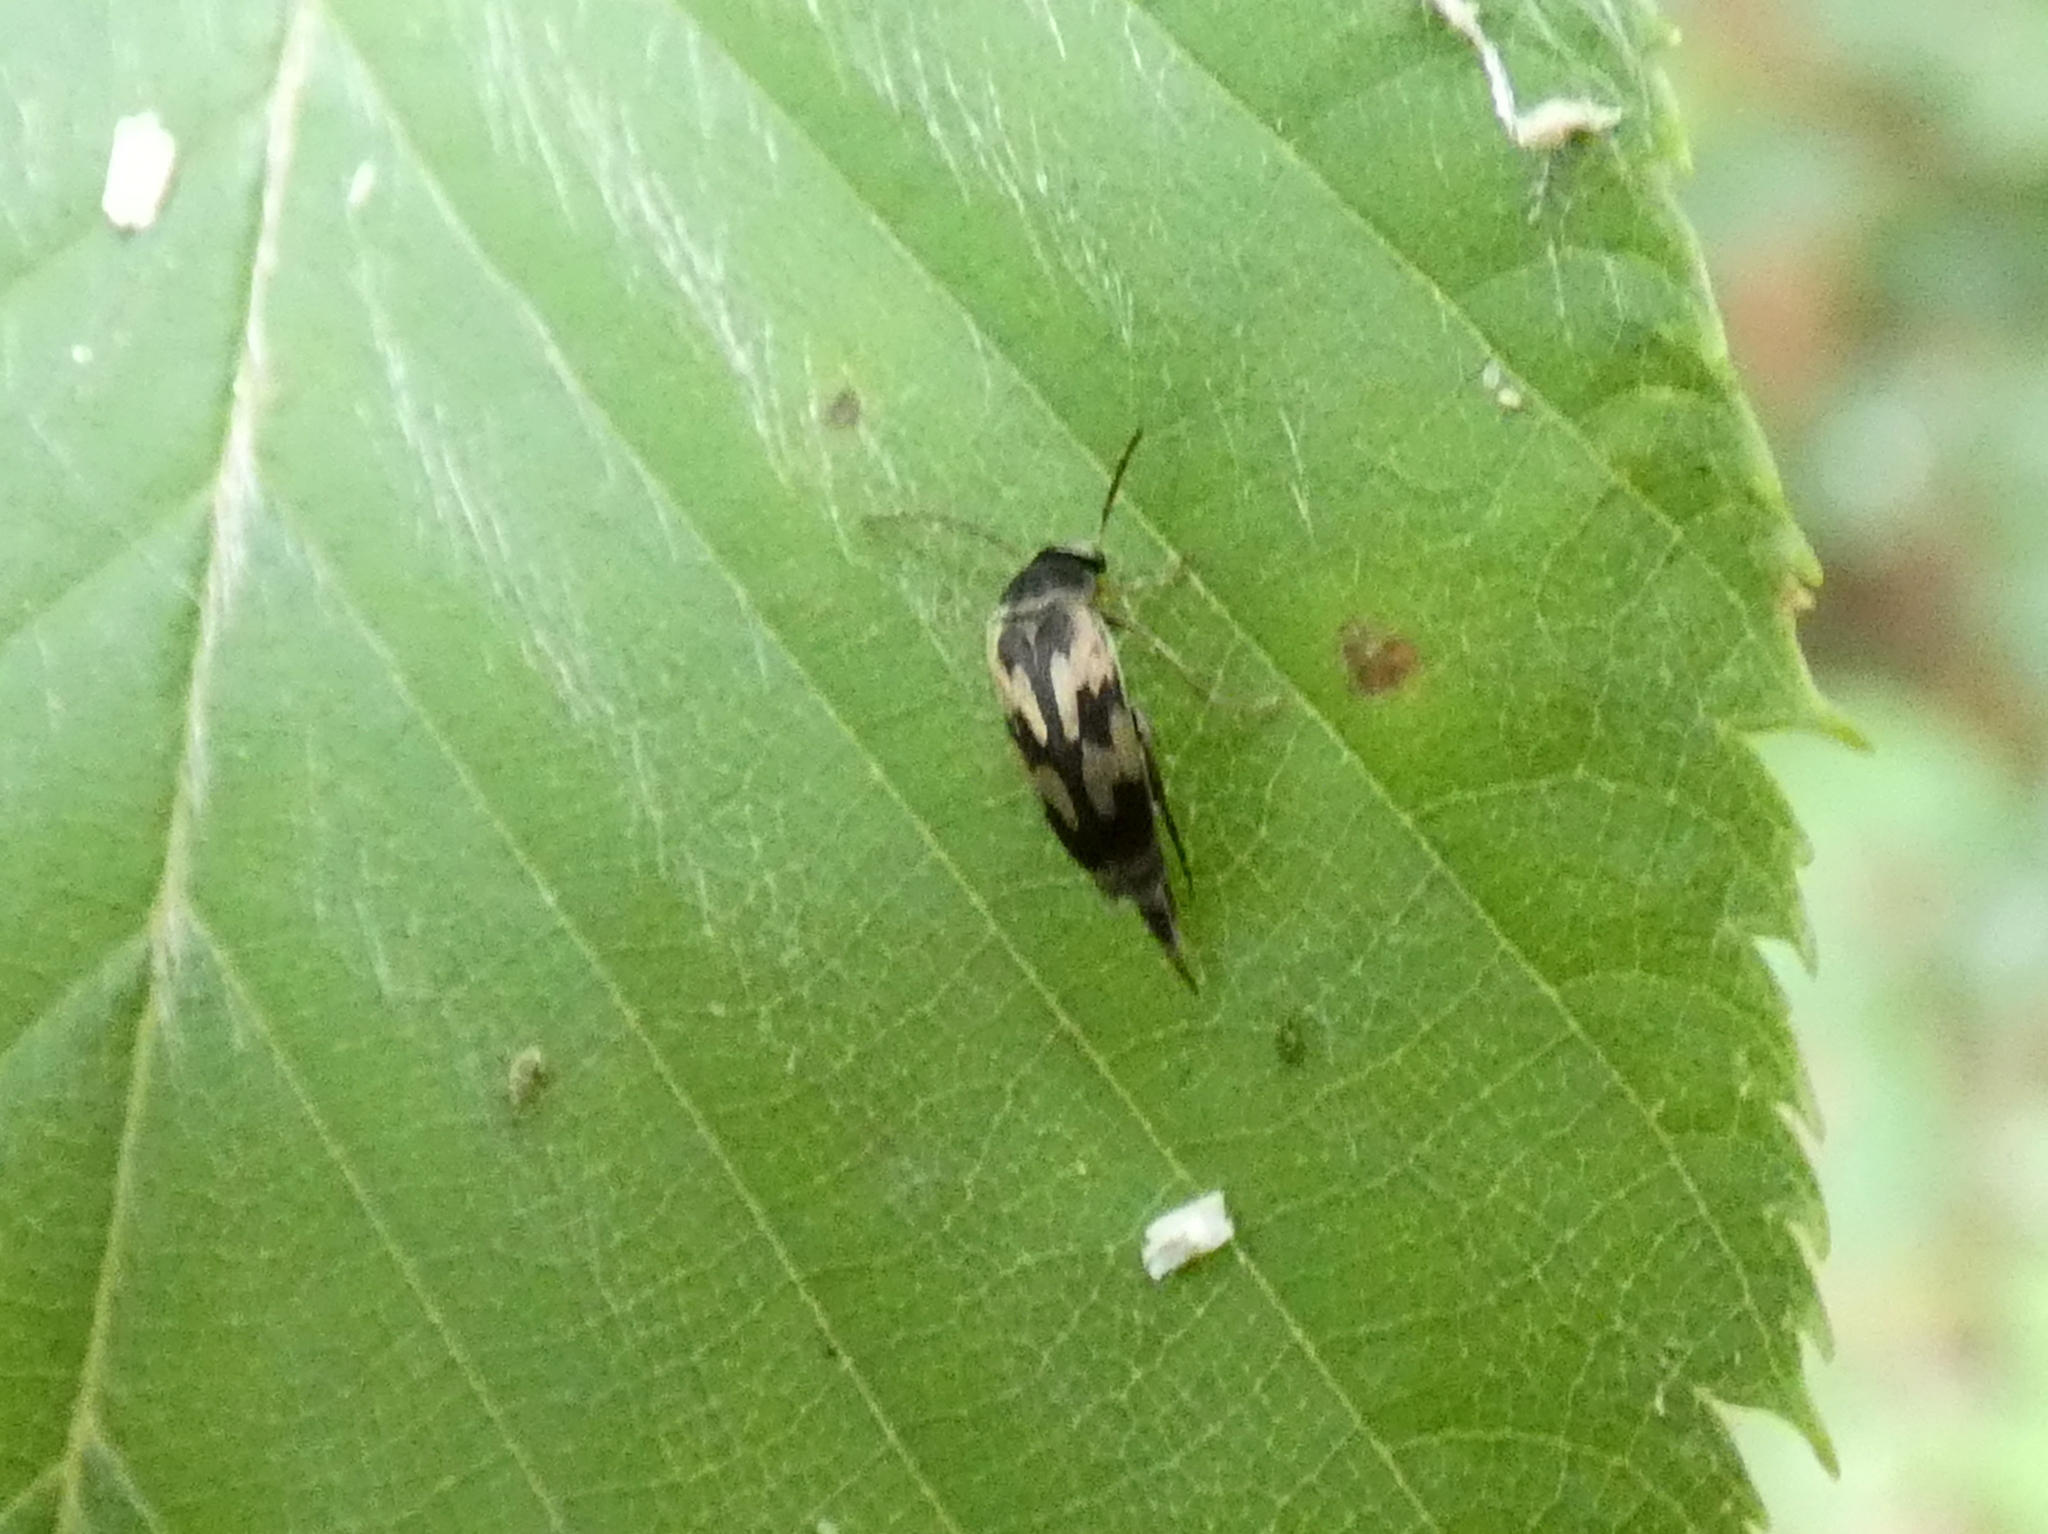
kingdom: Animalia
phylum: Arthropoda
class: Insecta
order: Coleoptera
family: Mordellidae
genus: Falsomordellistena
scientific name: Falsomordellistena bihamata
